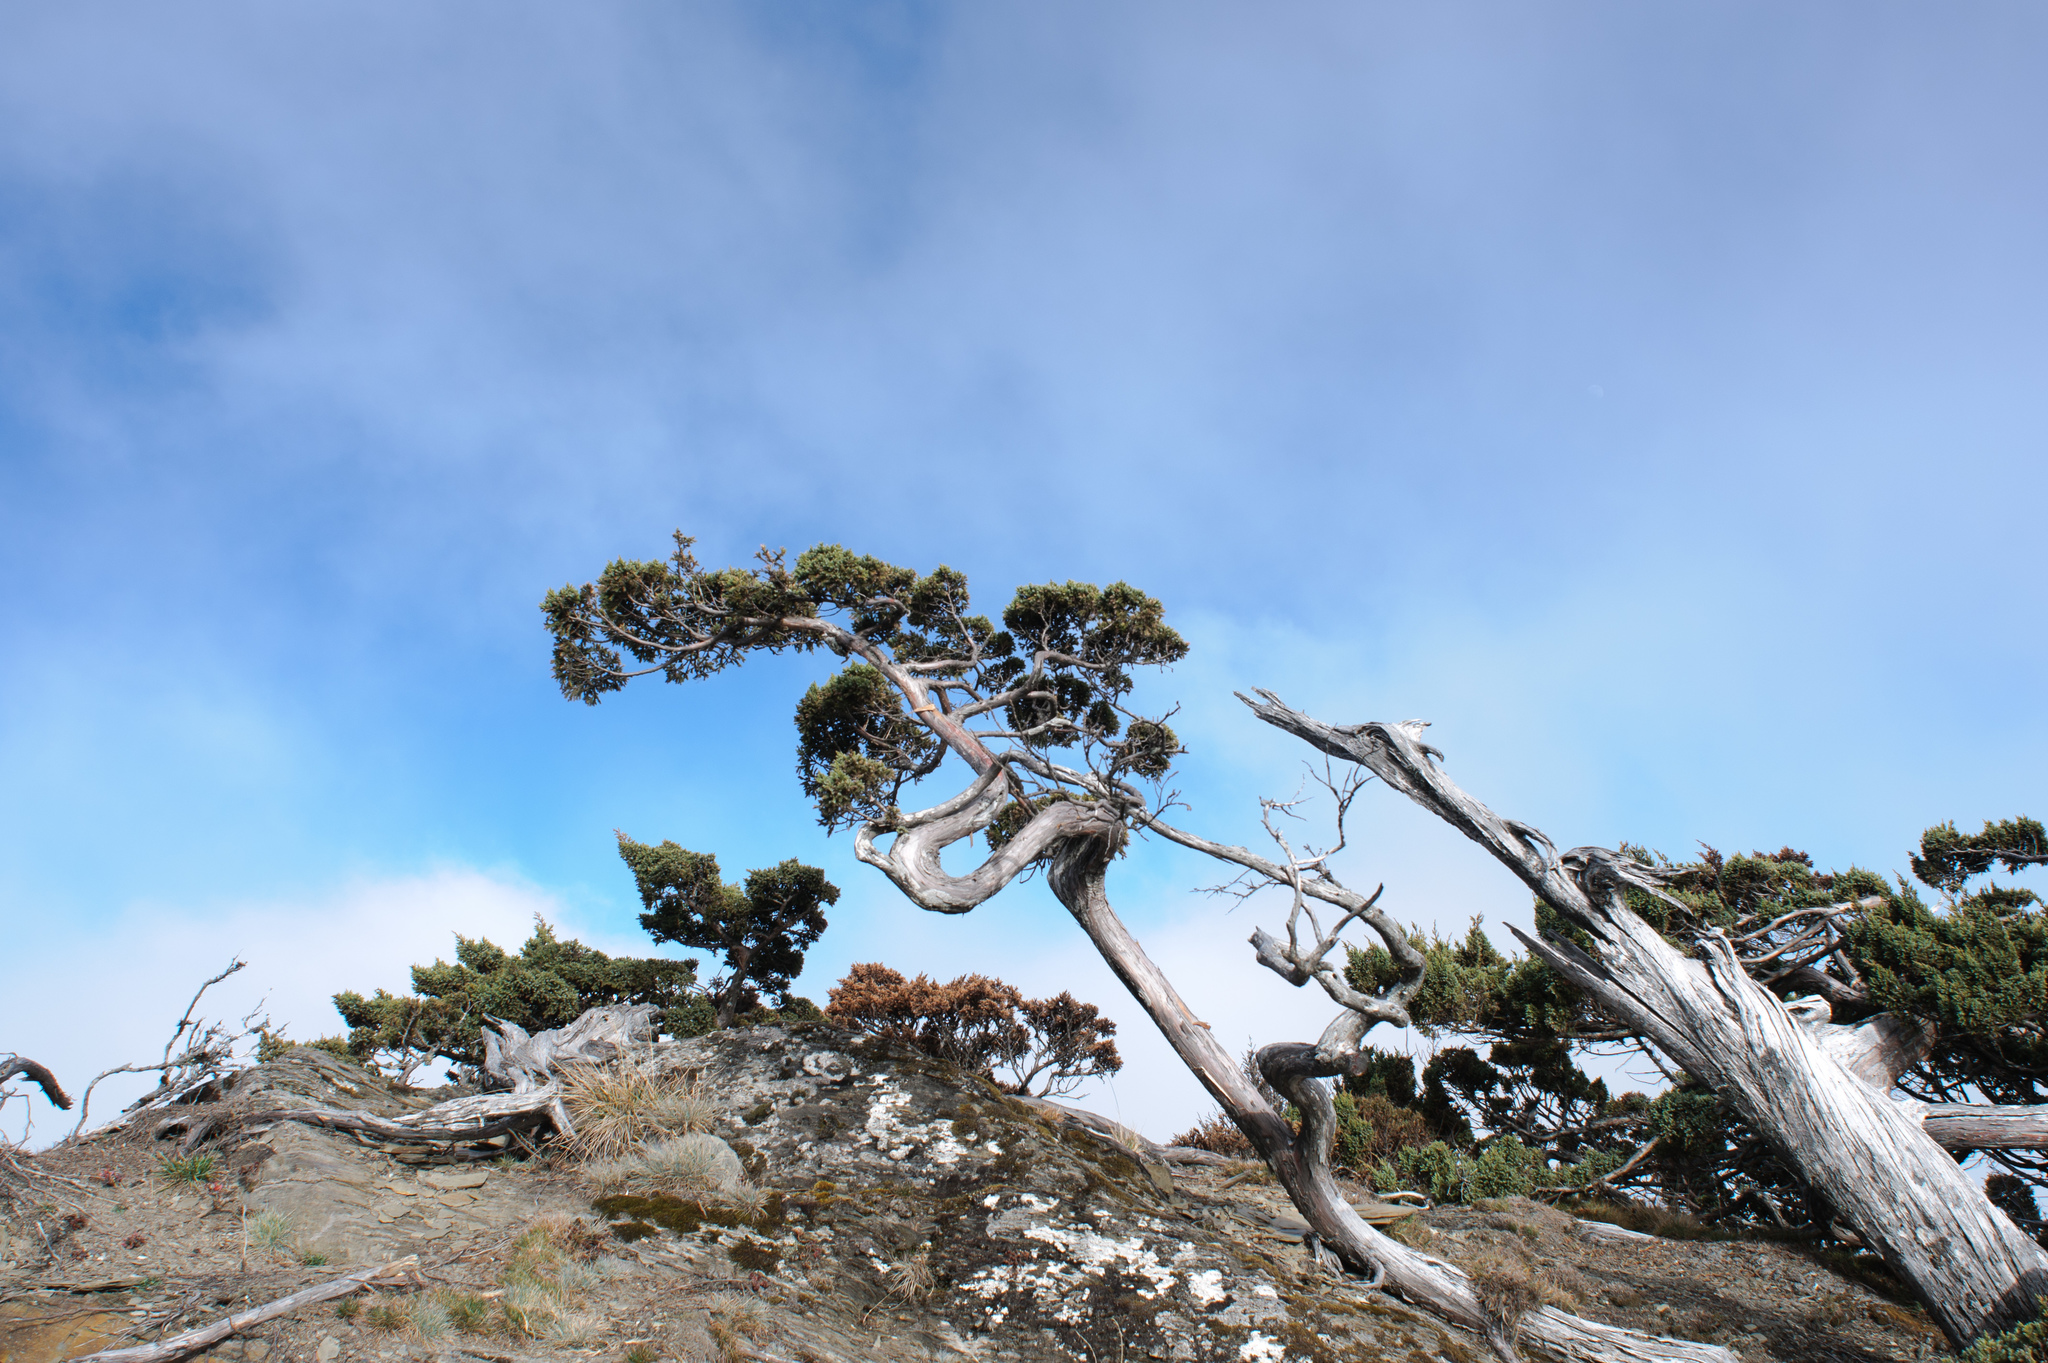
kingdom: Plantae
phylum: Tracheophyta
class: Pinopsida
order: Pinales
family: Cupressaceae
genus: Juniperus
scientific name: Juniperus squamata
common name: Flaky juniper
